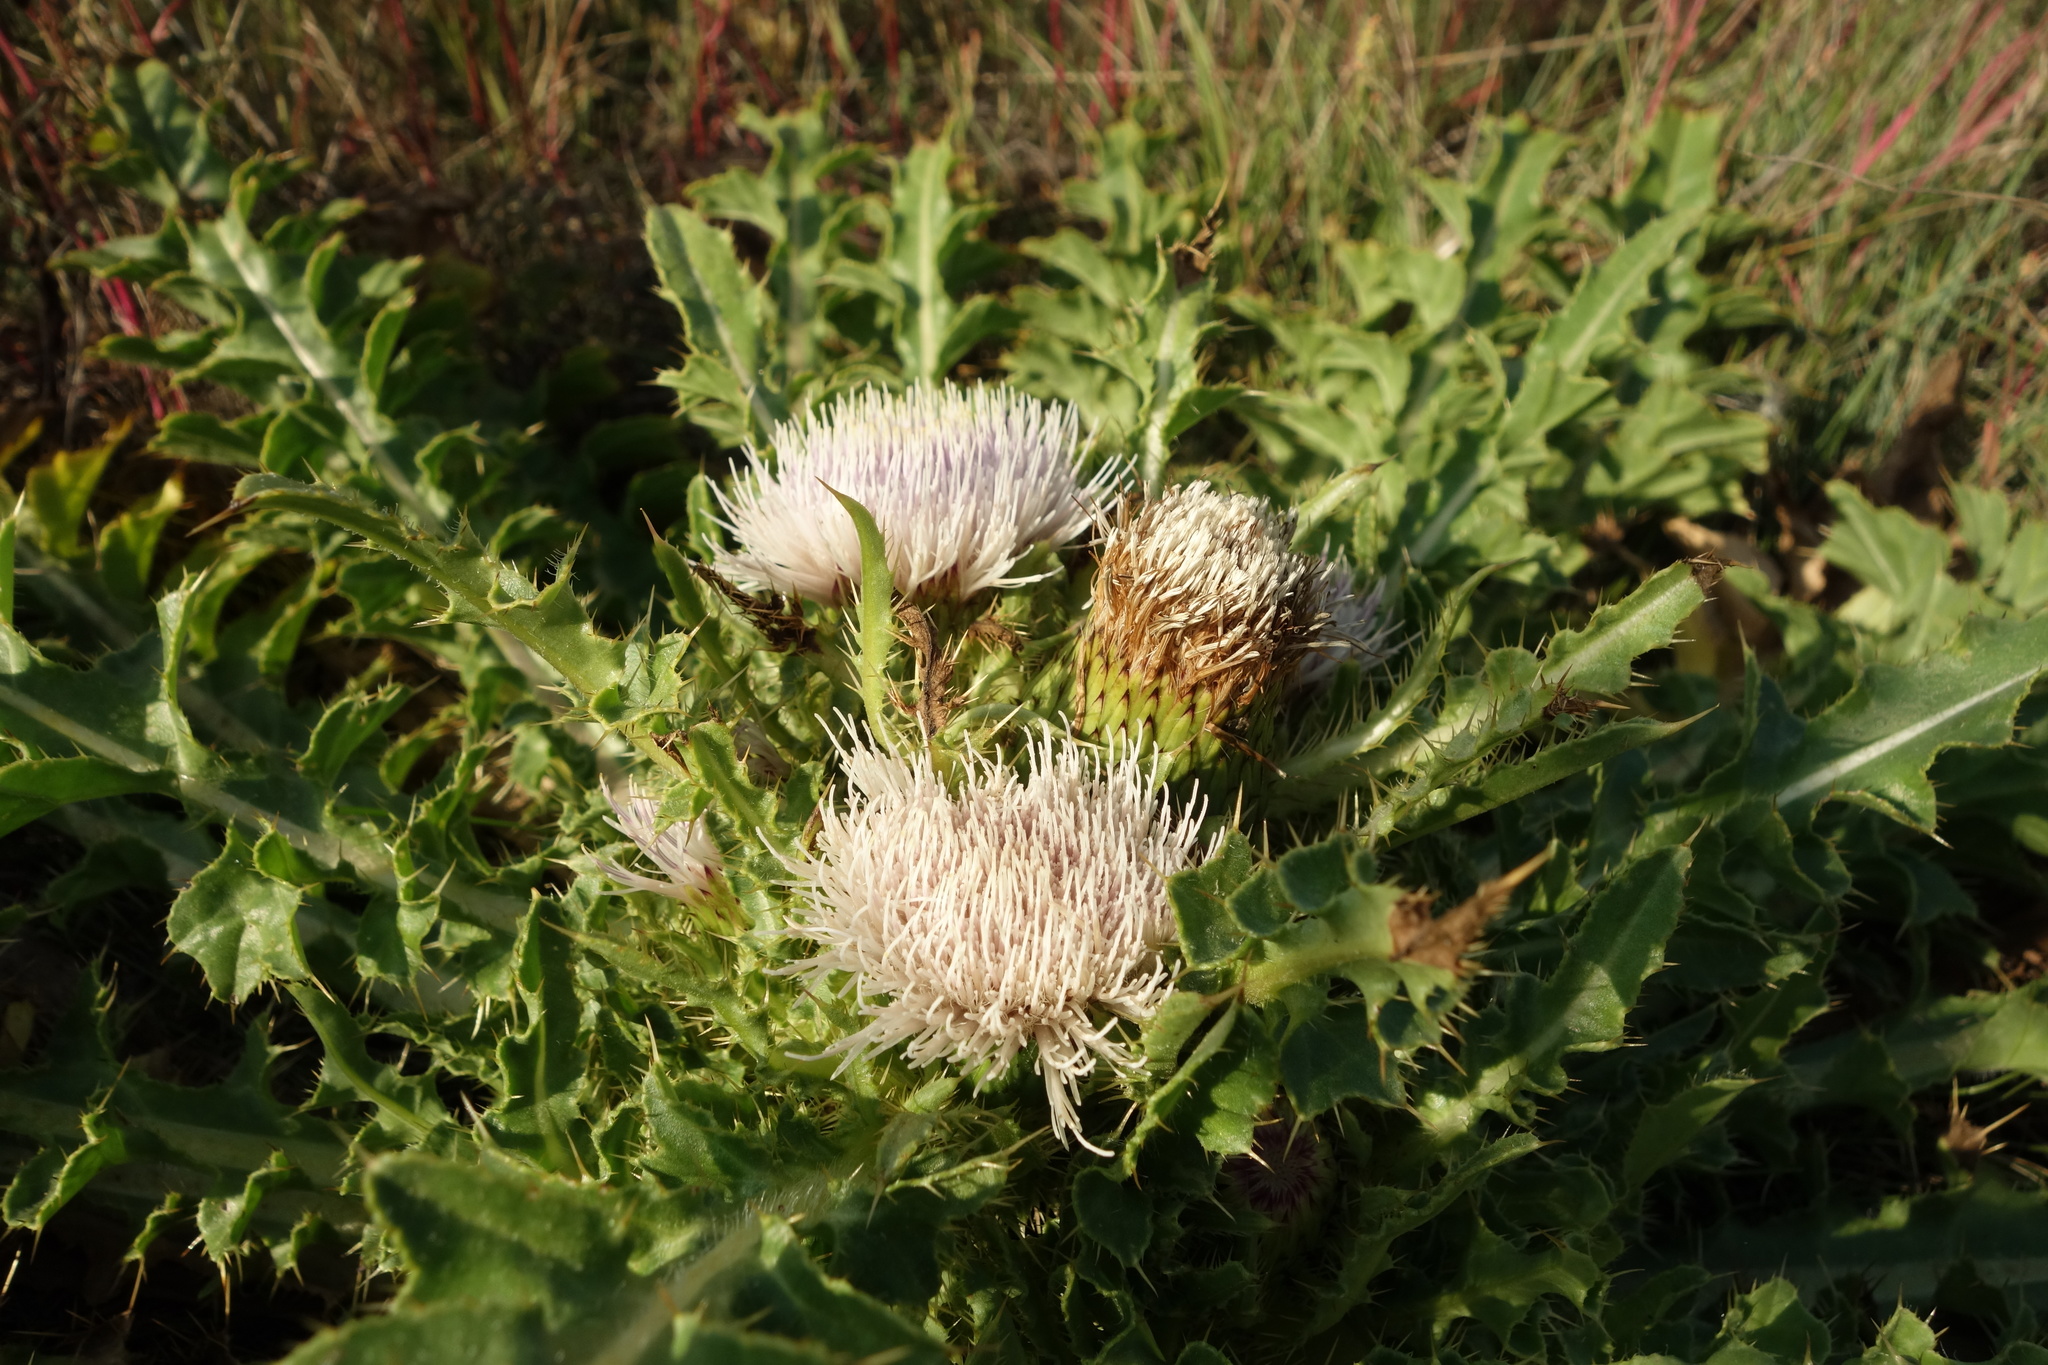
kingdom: Plantae
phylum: Tracheophyta
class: Magnoliopsida
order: Asterales
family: Asteraceae
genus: Cirsium
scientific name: Cirsium esculentum
